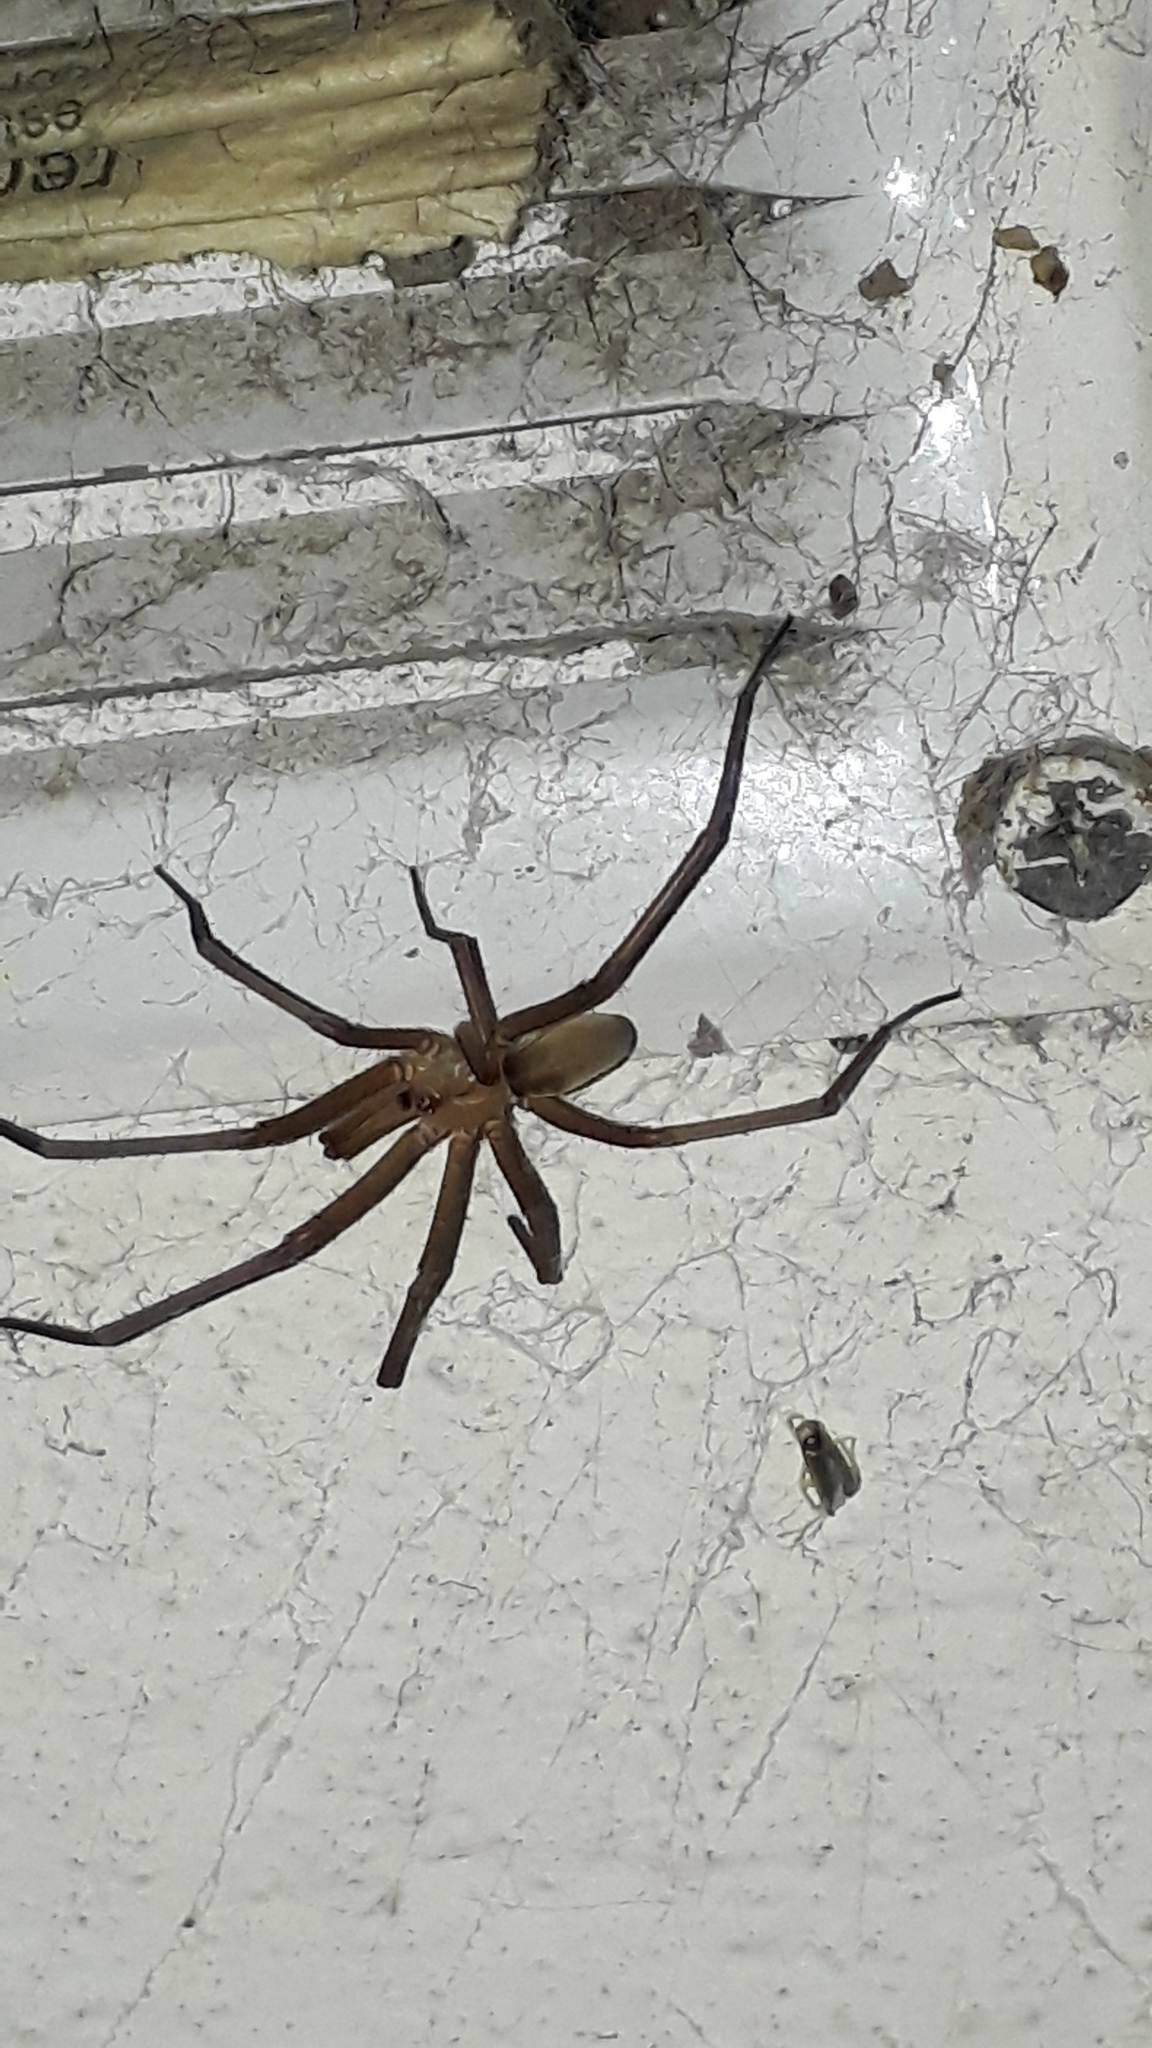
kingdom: Animalia
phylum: Arthropoda
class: Arachnida
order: Araneae
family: Filistatidae
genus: Kukulcania
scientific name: Kukulcania hibernalis
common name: Crevice weaver
